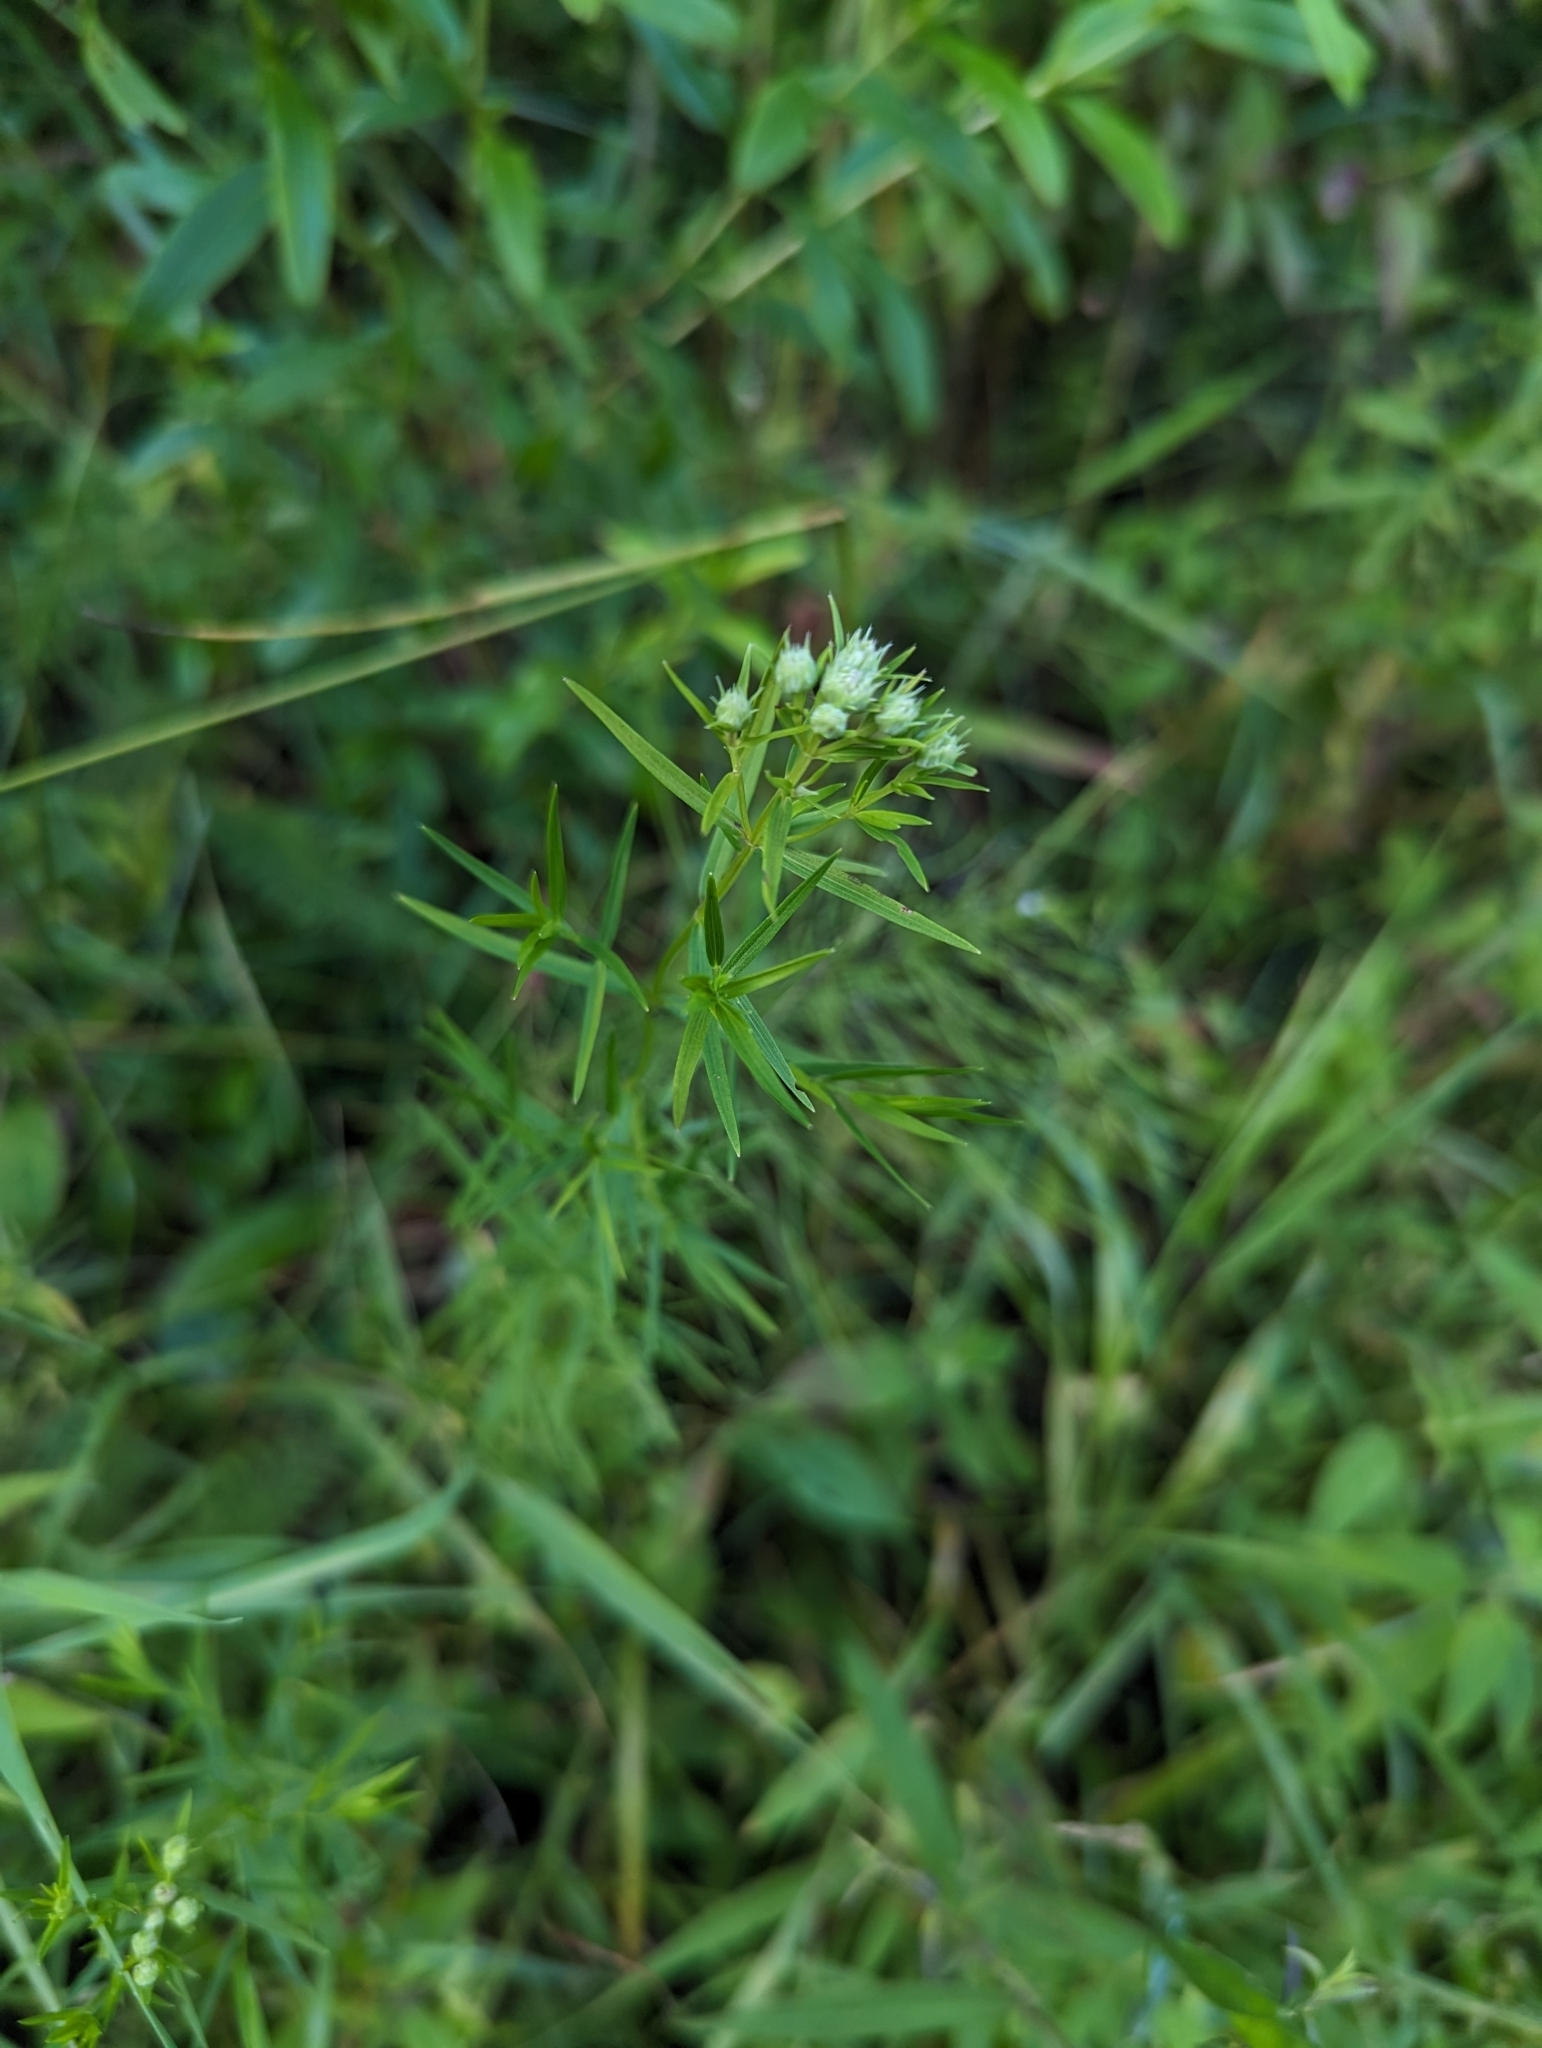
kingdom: Plantae
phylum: Tracheophyta
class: Magnoliopsida
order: Lamiales
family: Lamiaceae
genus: Pycnanthemum
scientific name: Pycnanthemum tenuifolium
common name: Narrow-leaf mountain-mint
